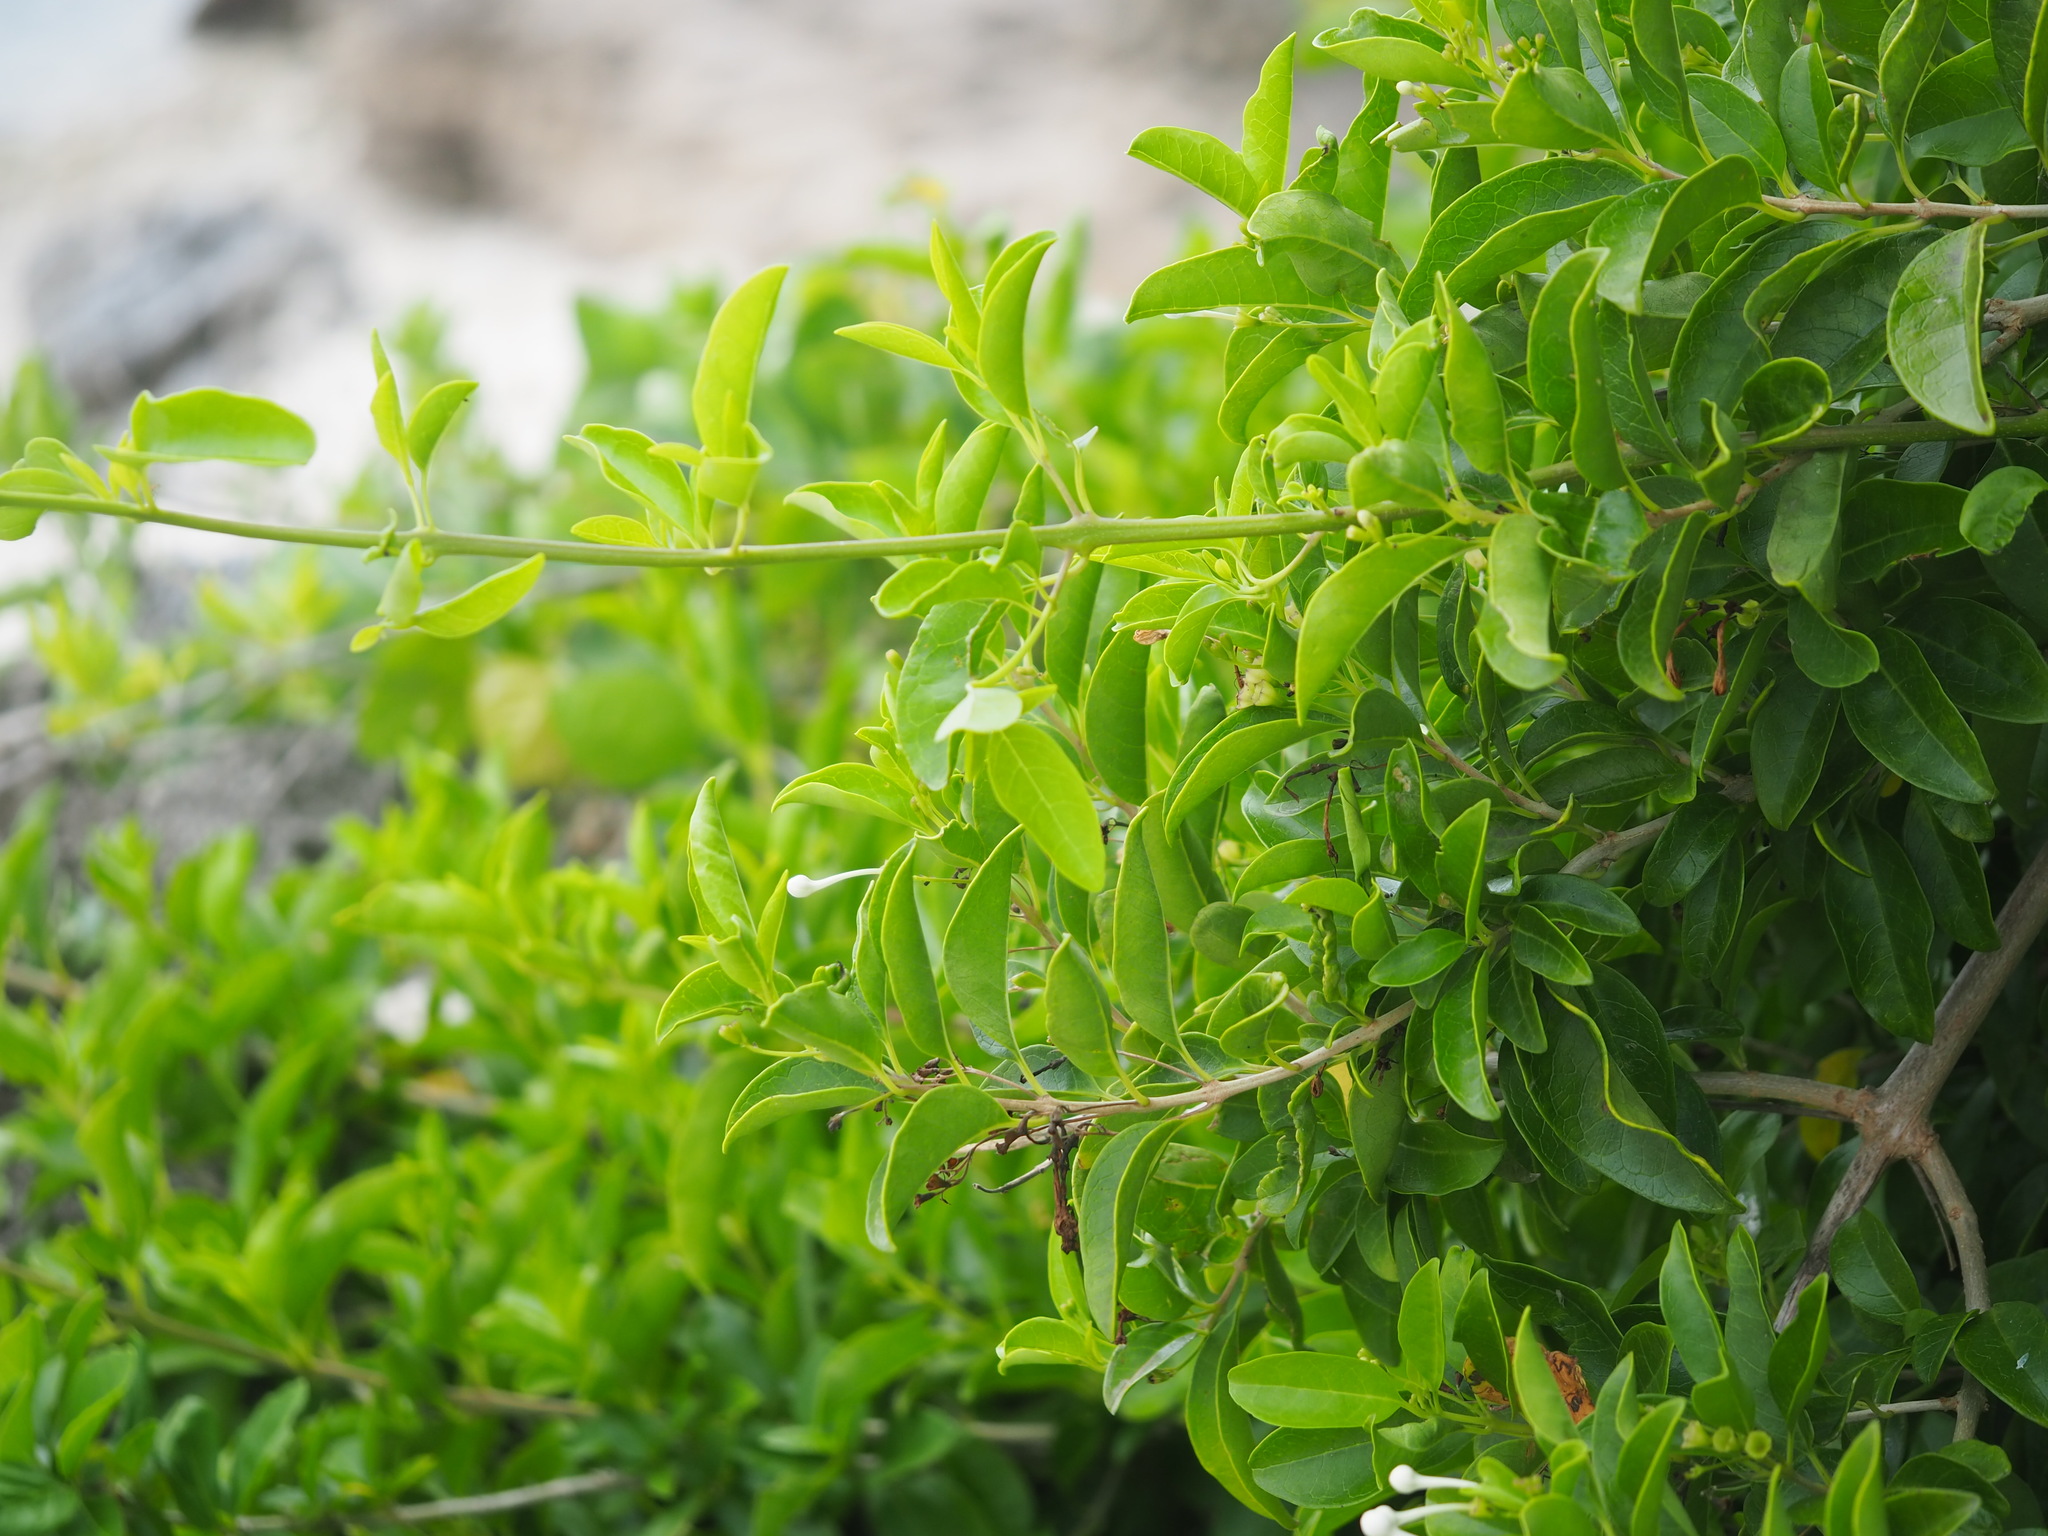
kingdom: Plantae
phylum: Tracheophyta
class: Magnoliopsida
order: Lamiales
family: Lamiaceae
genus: Volkameria
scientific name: Volkameria inermis
